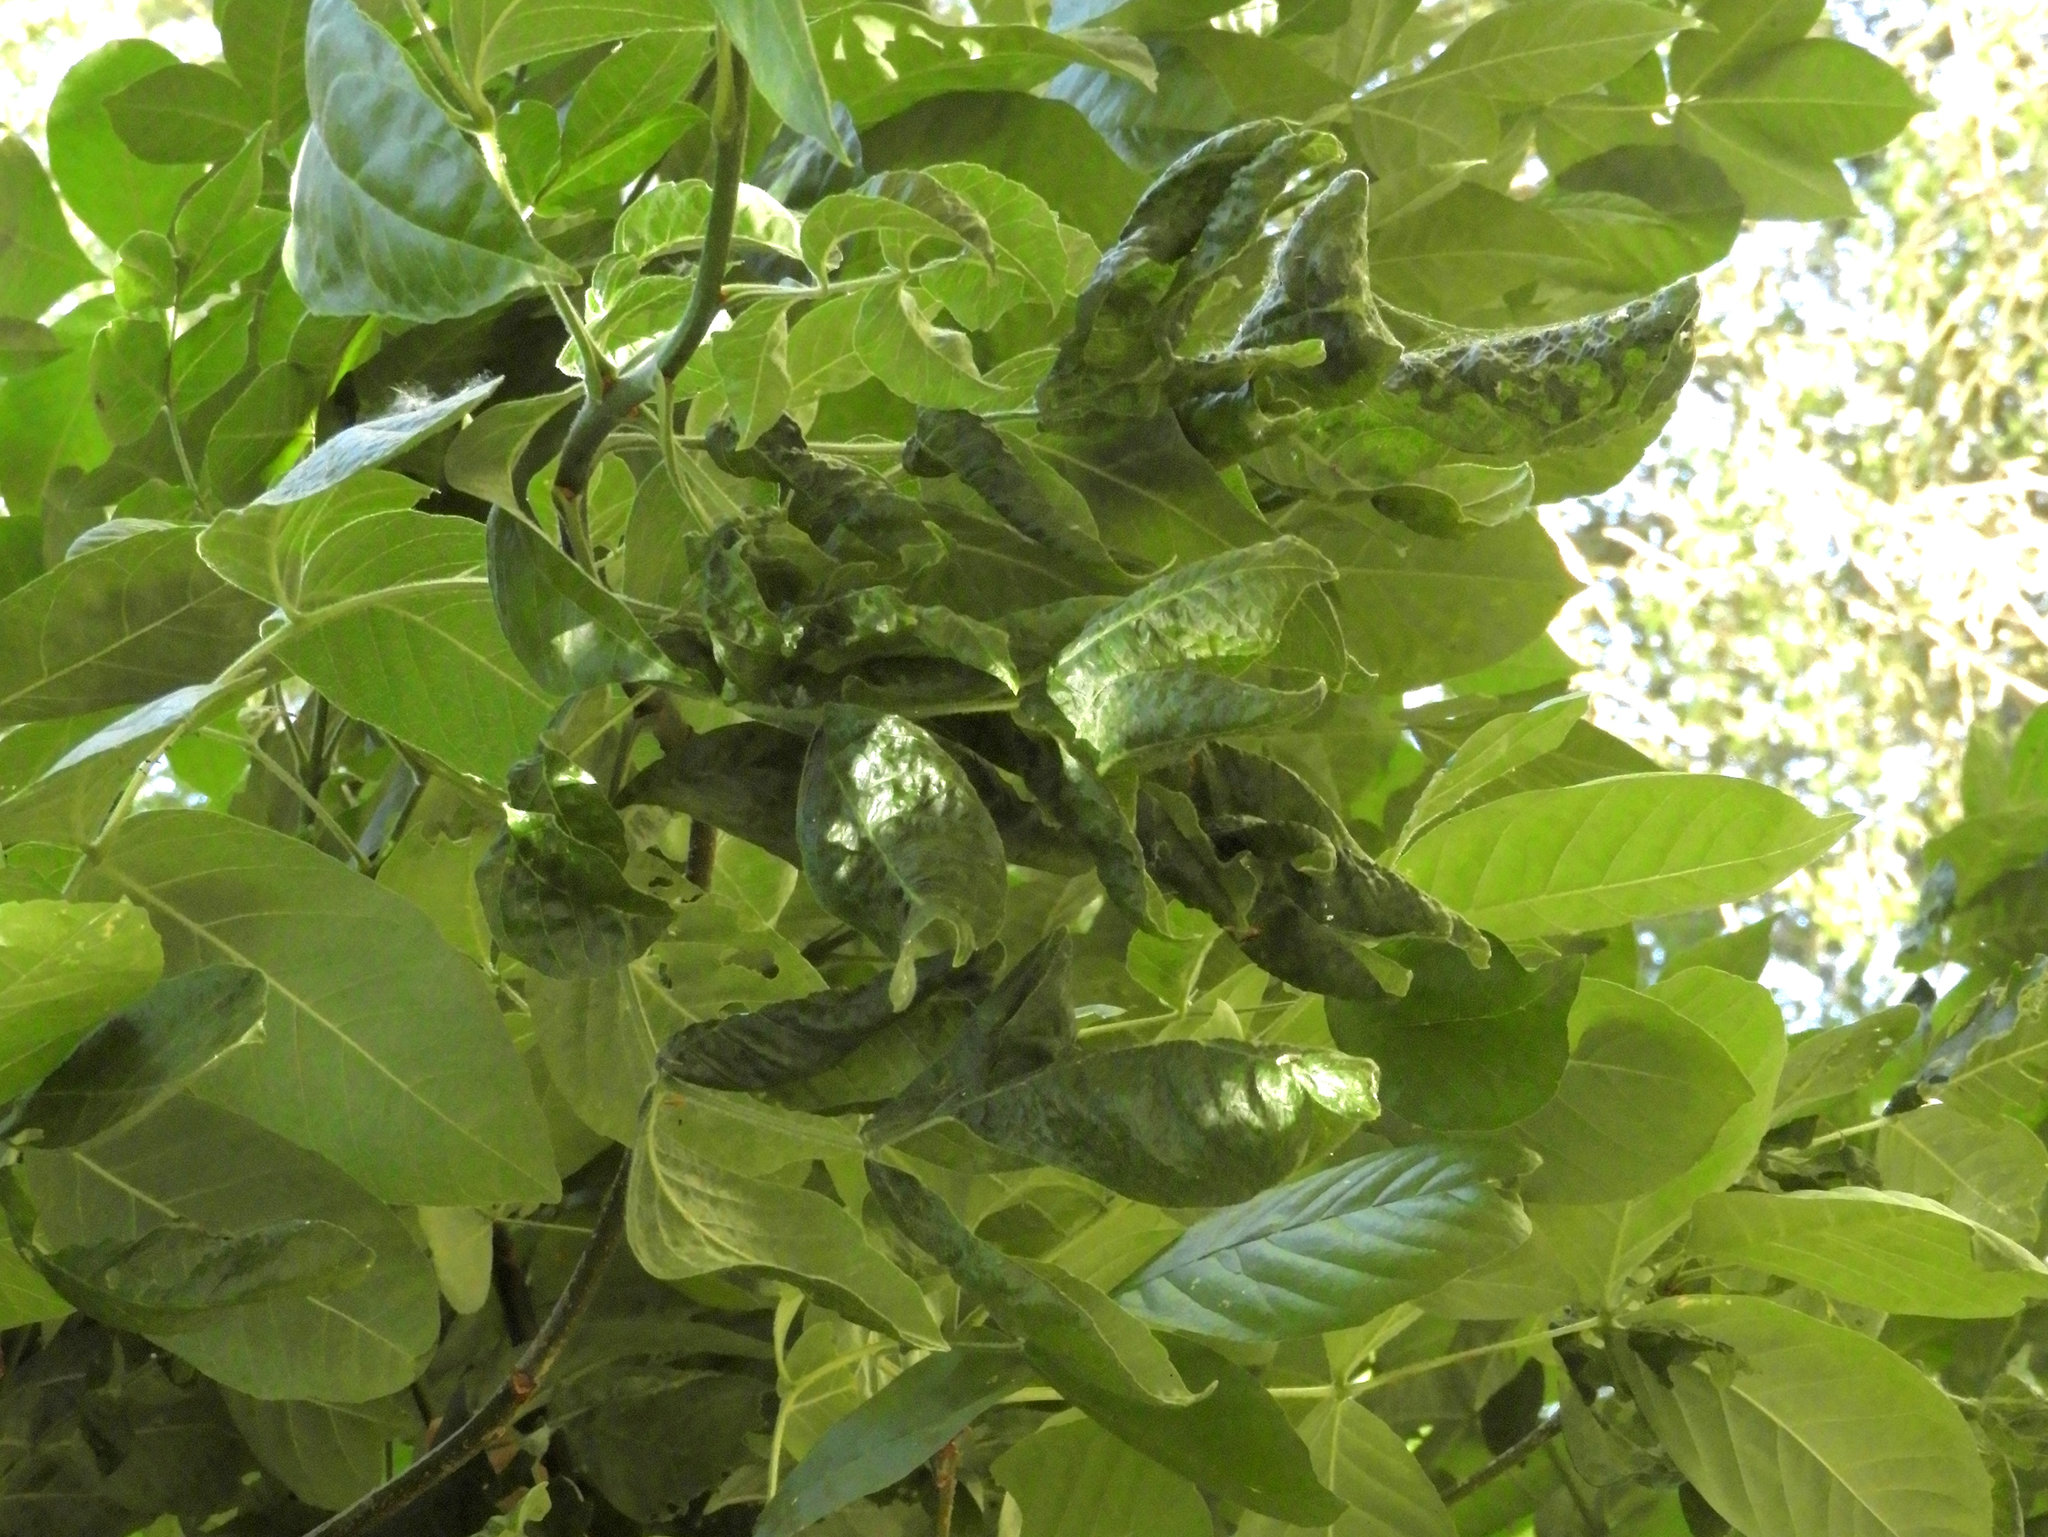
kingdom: Animalia
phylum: Arthropoda
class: Insecta
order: Hemiptera
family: Aphididae
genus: Prociphilus
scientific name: Prociphilus fraxinifolii
